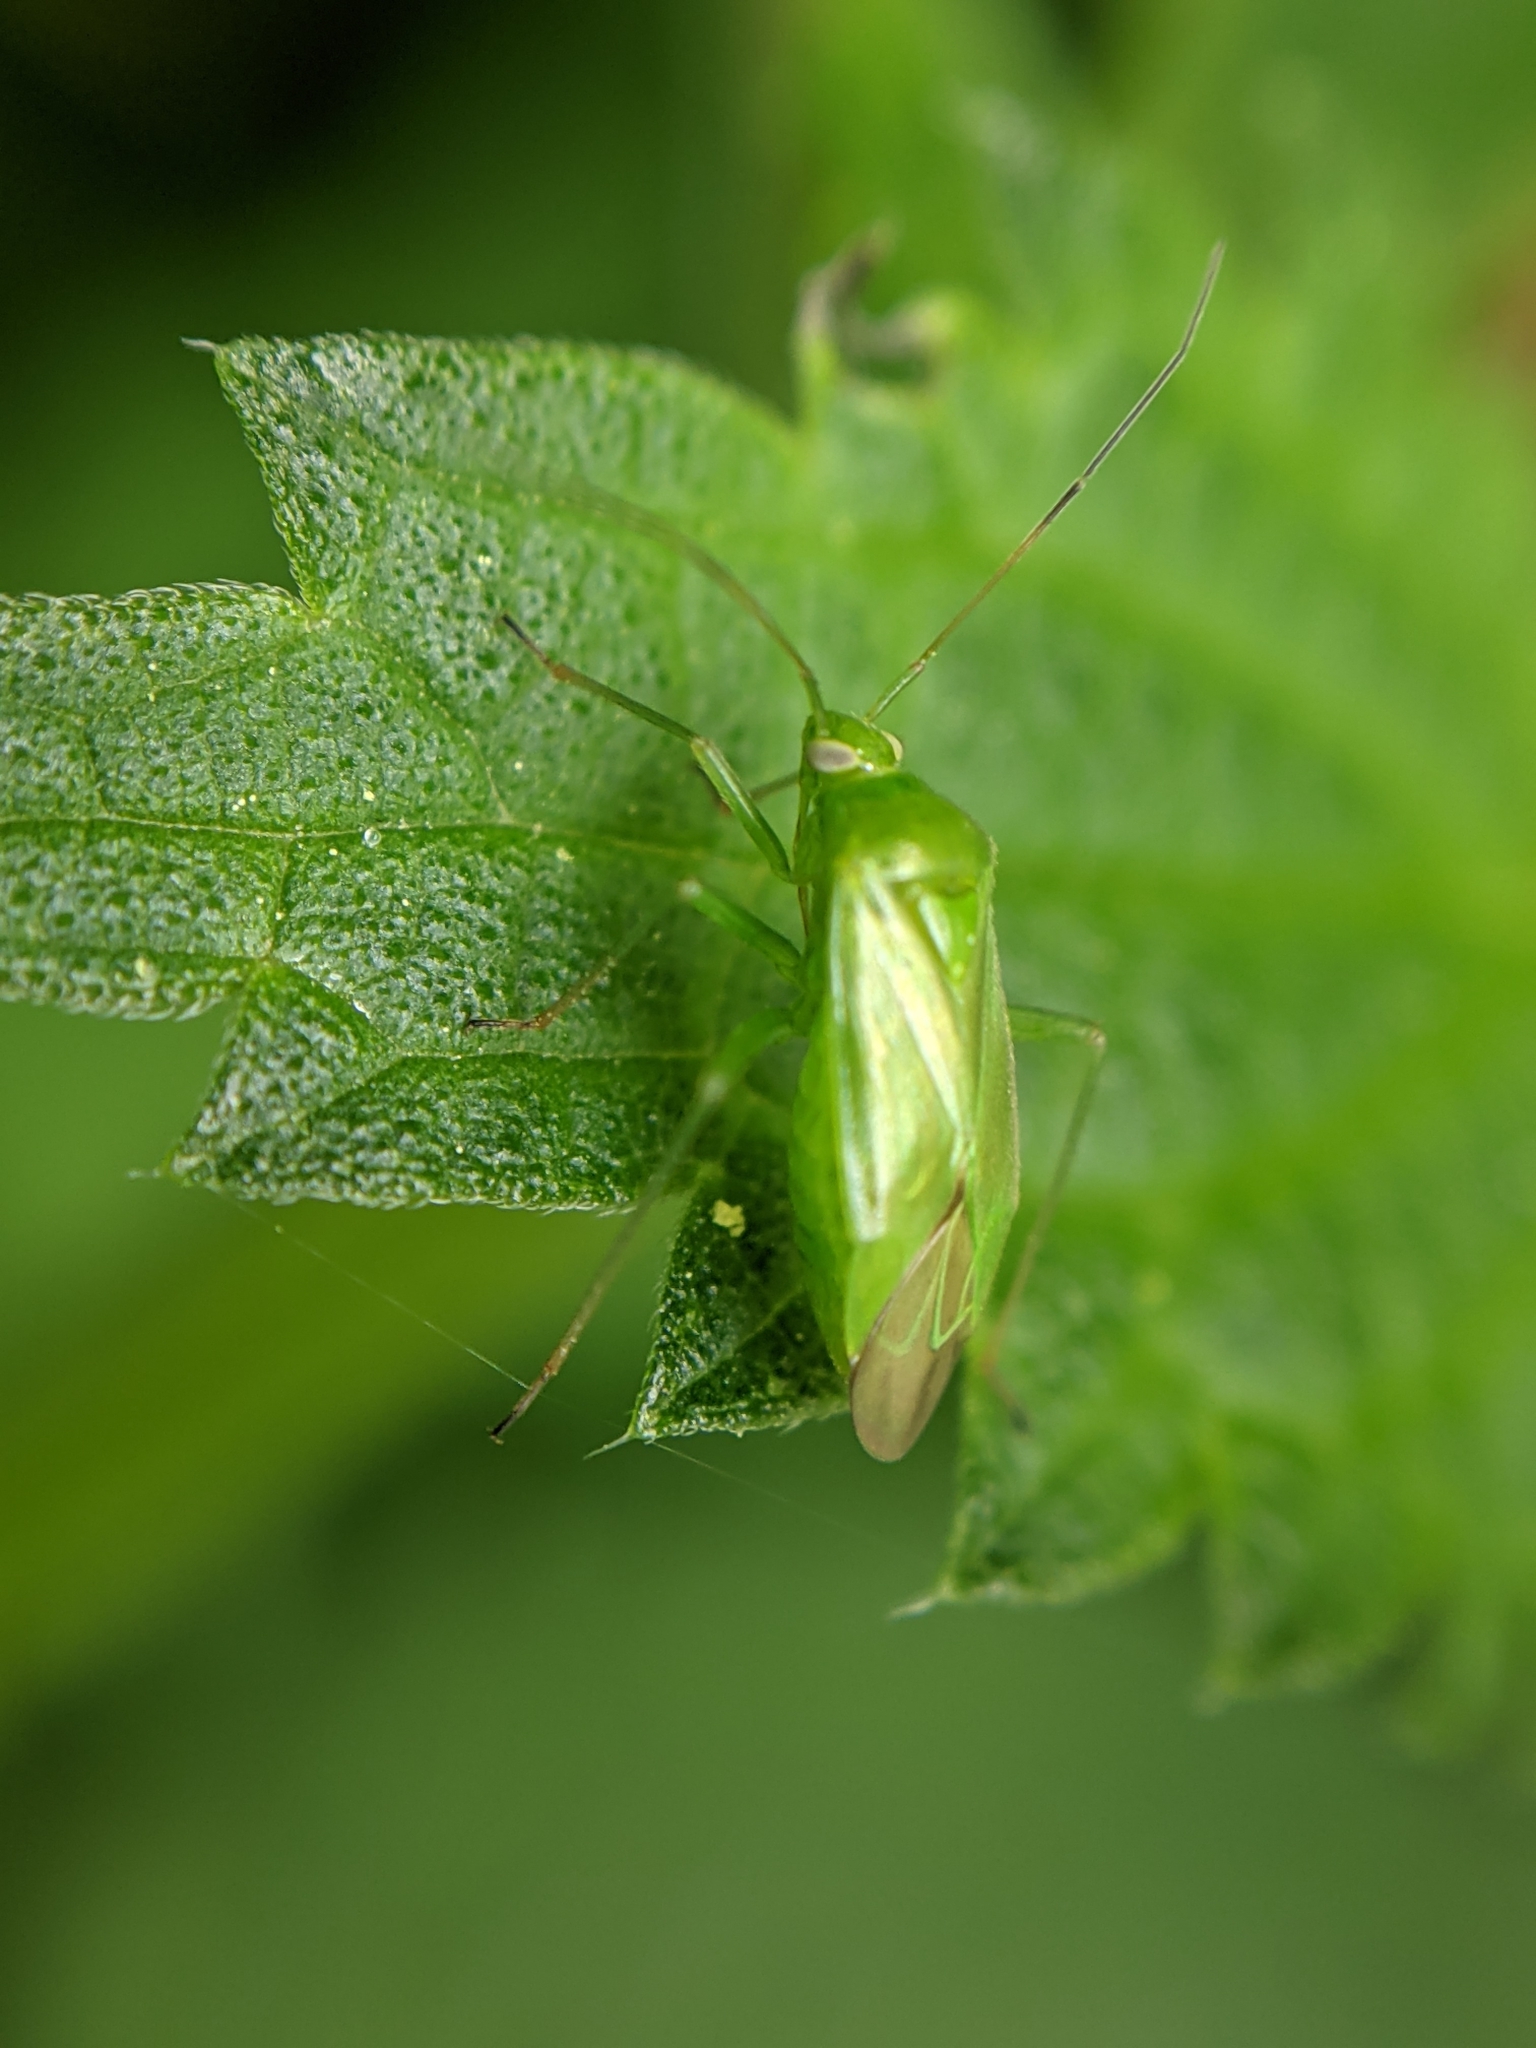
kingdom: Animalia
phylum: Arthropoda
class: Insecta
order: Hemiptera
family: Miridae
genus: Lygocoris
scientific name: Lygocoris pabulinus
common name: Common green capsid
